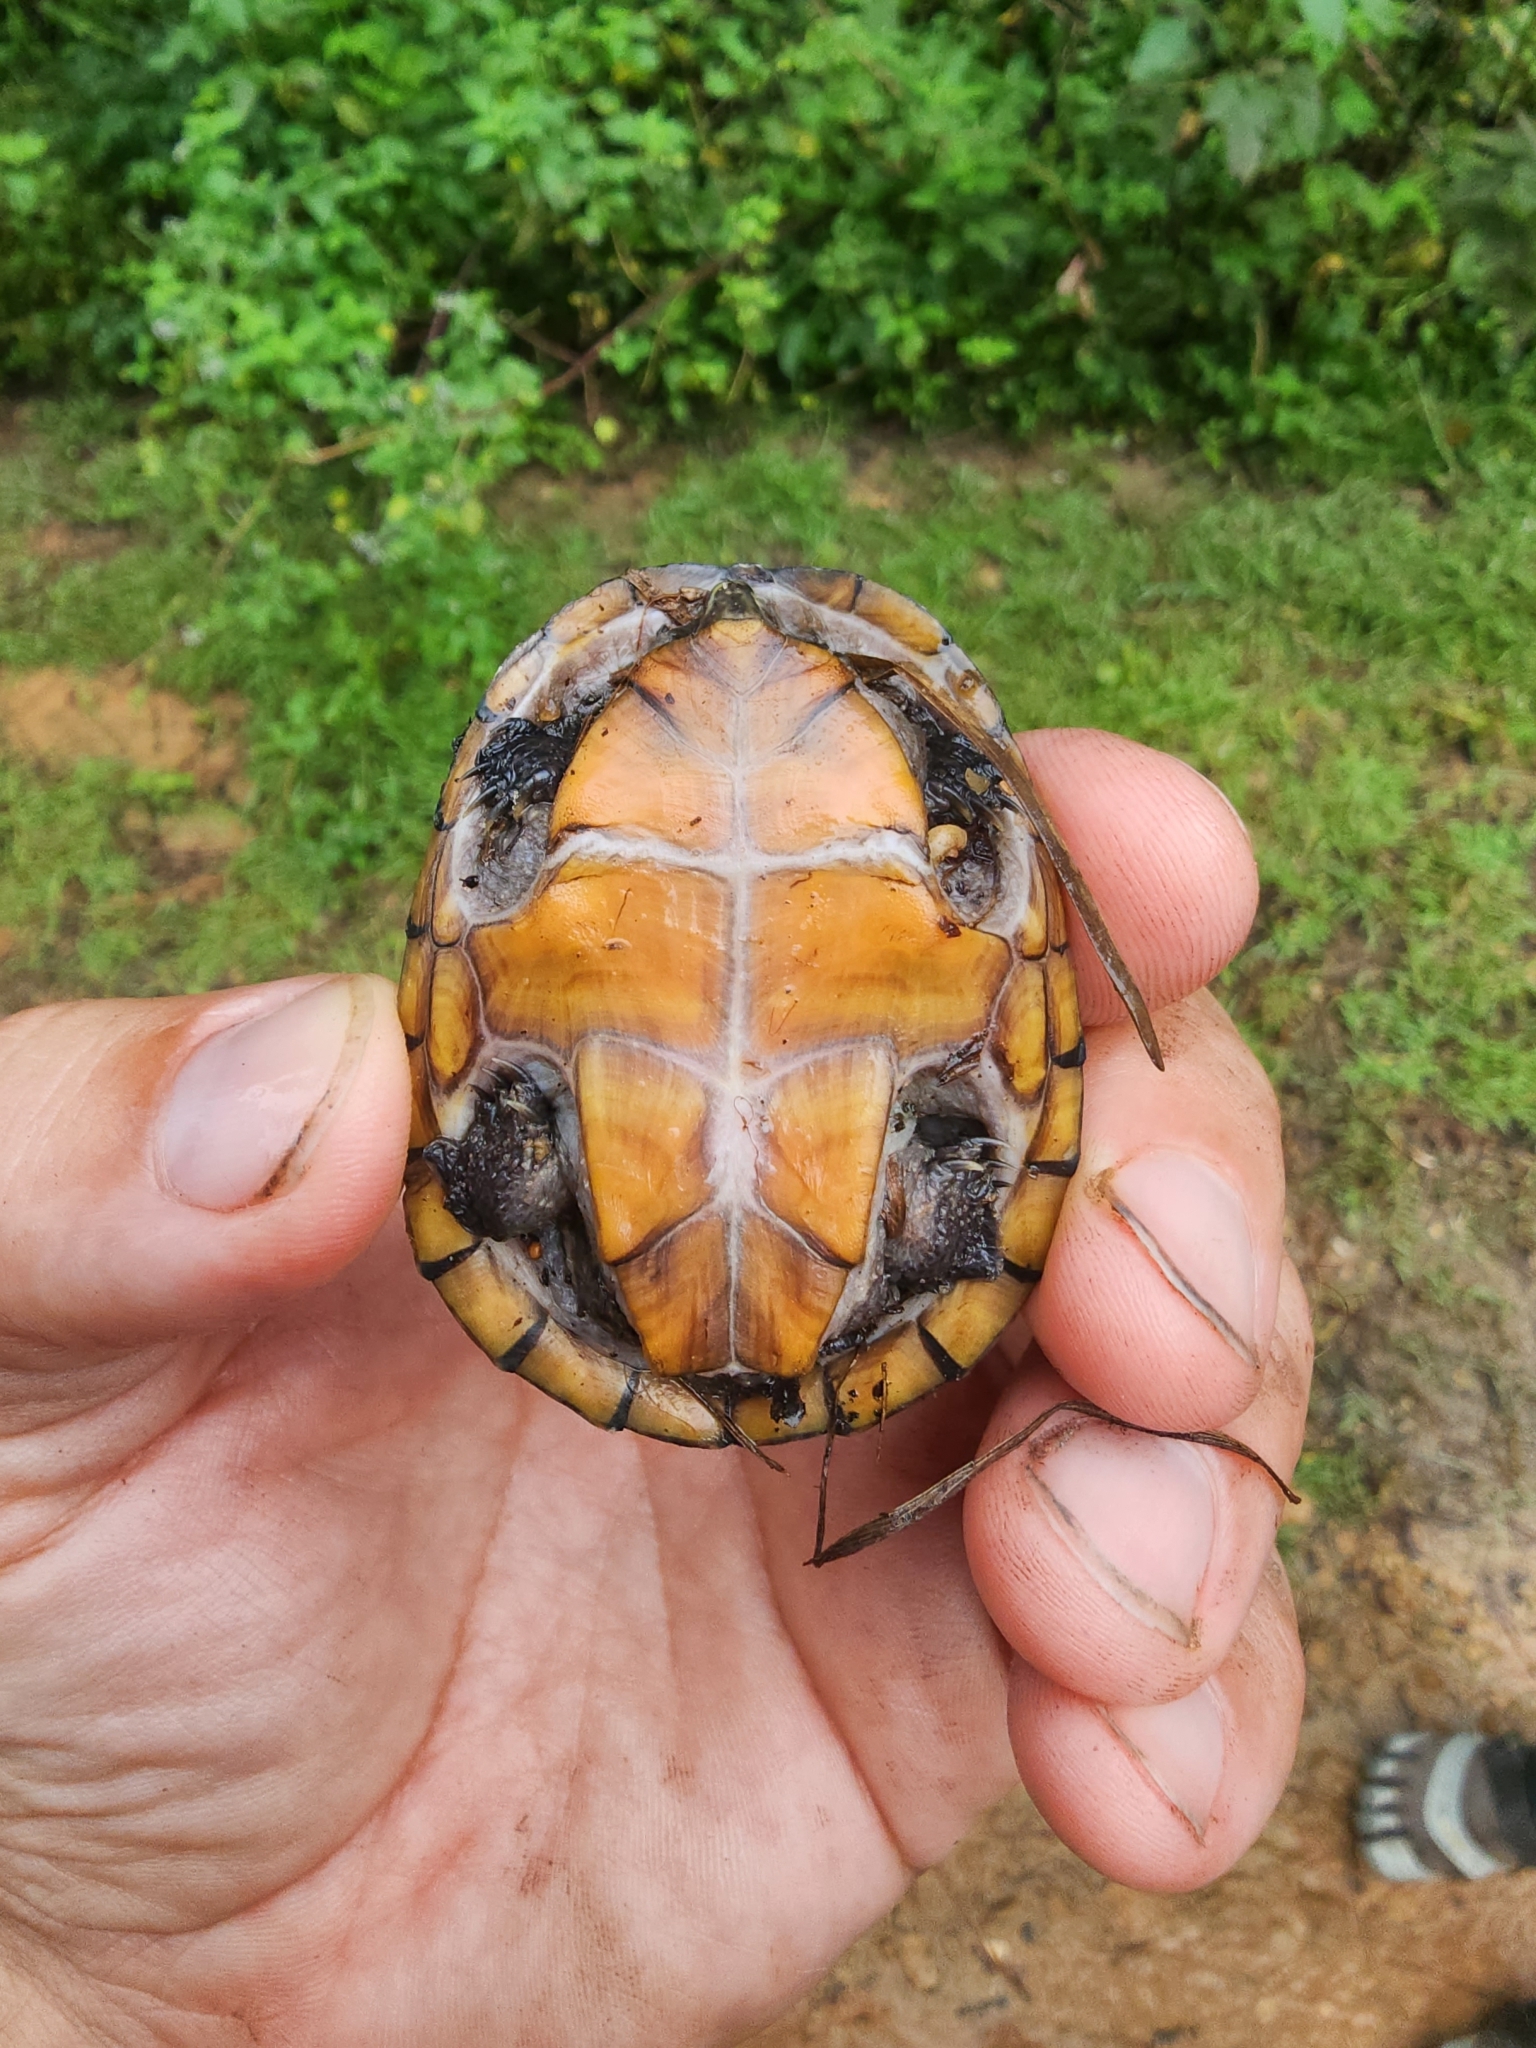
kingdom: Animalia
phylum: Chordata
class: Testudines
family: Kinosternidae
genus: Sternotherus
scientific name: Sternotherus odoratus
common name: Common musk turtle
